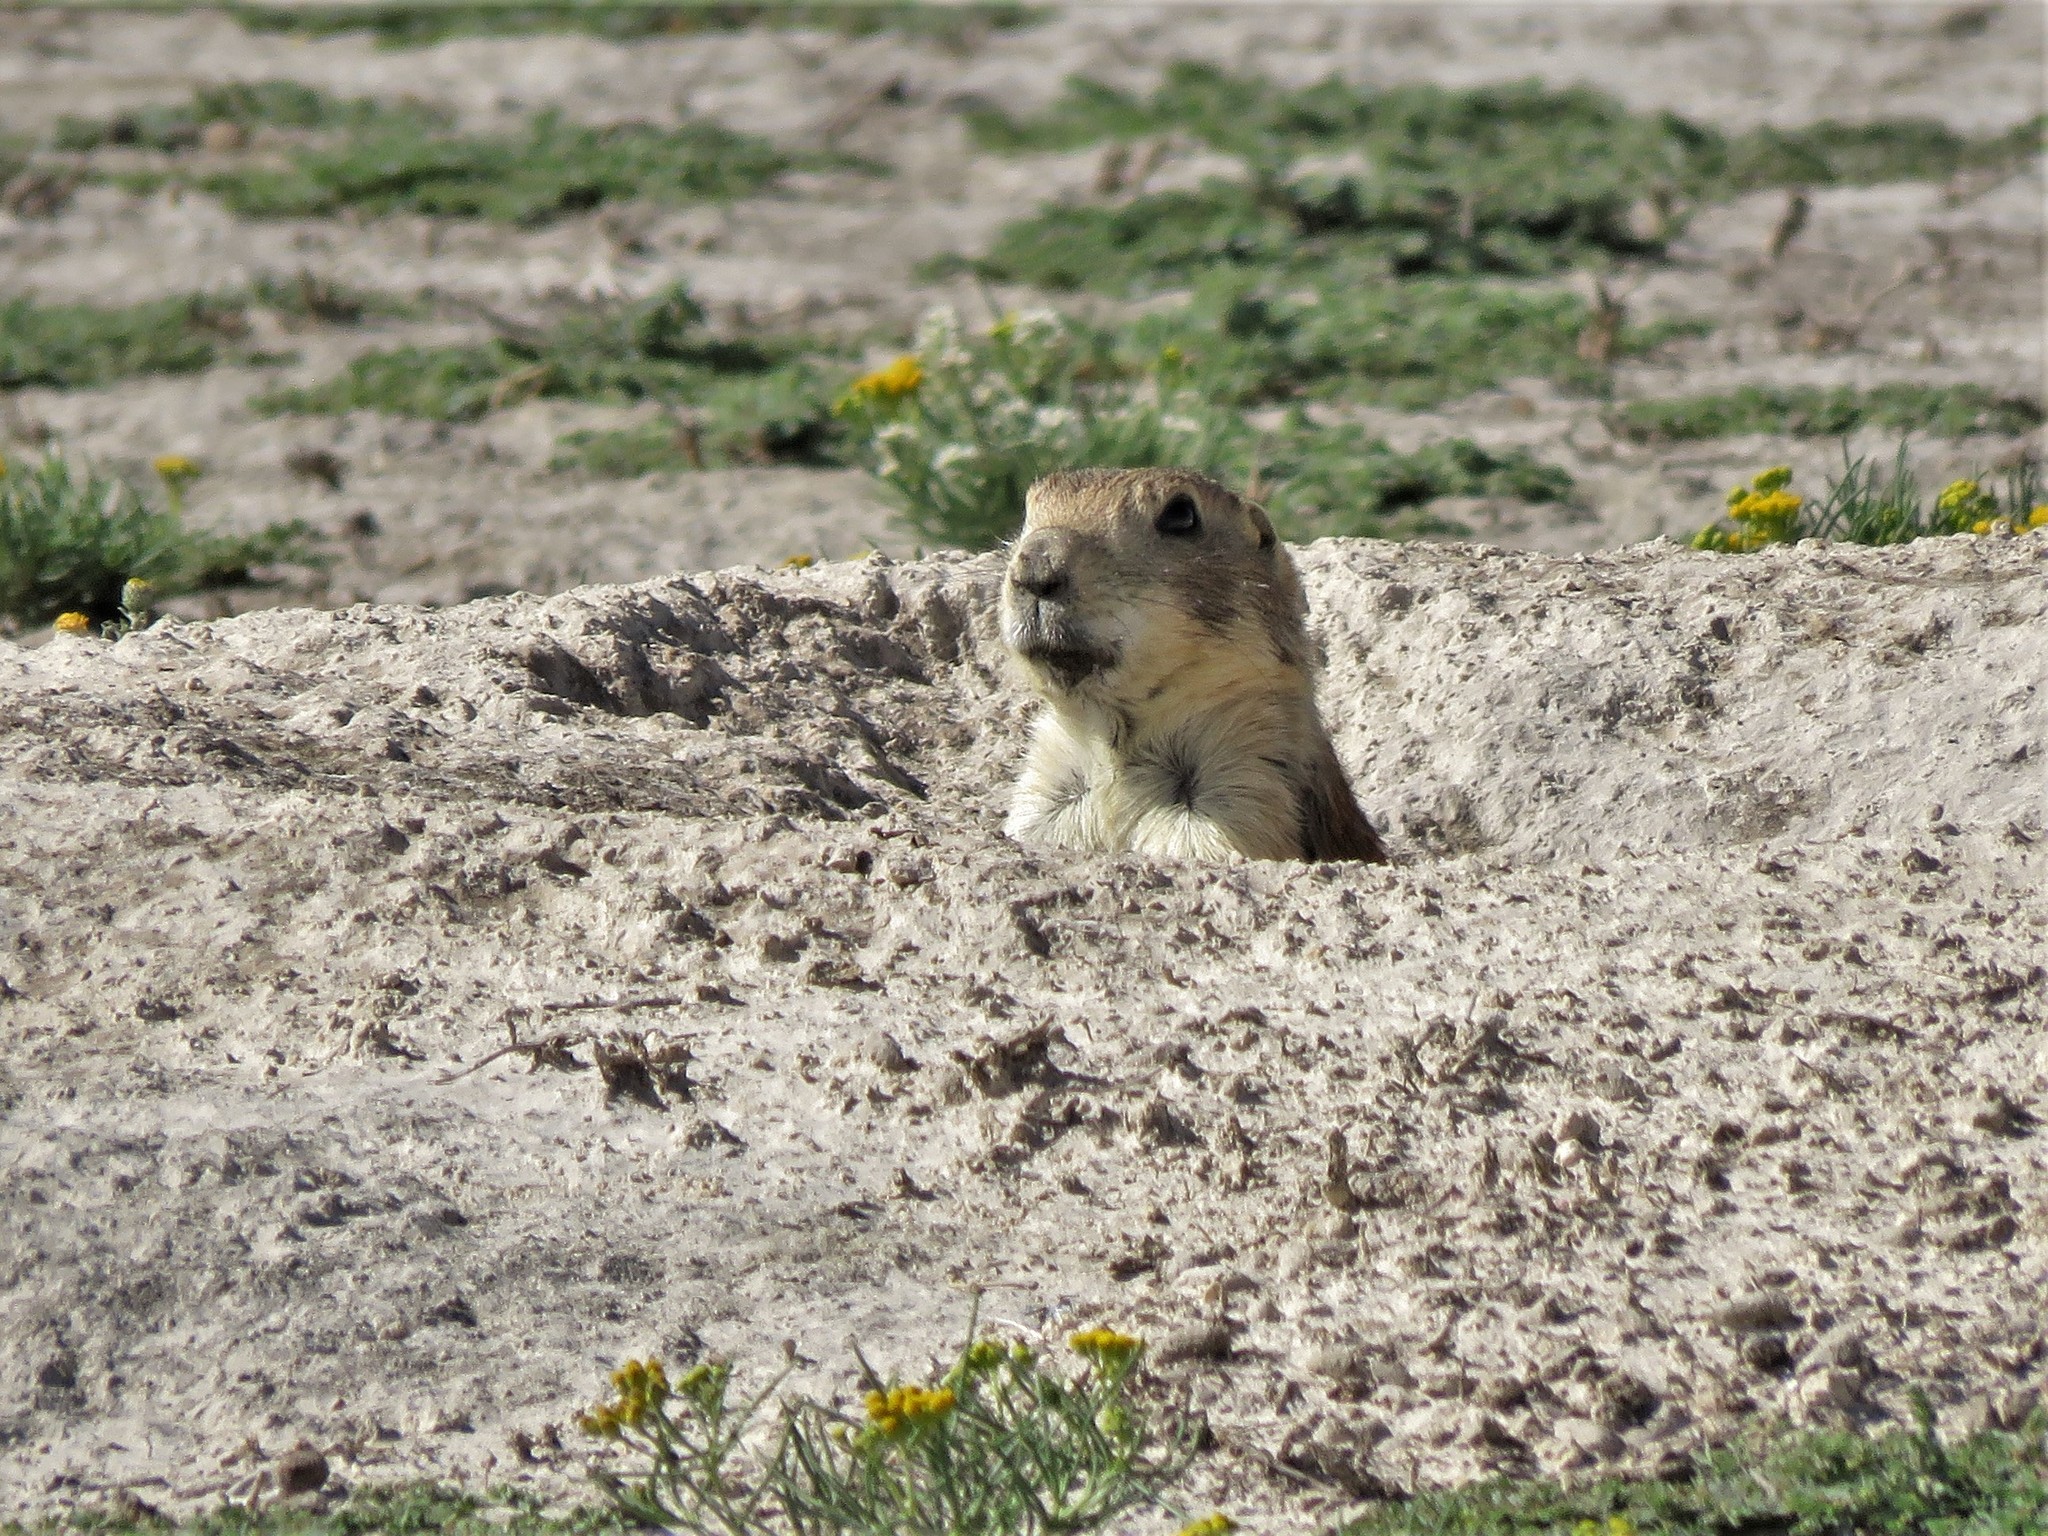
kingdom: Animalia
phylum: Chordata
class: Mammalia
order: Rodentia
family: Sciuridae
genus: Cynomys
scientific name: Cynomys mexicanus
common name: Mexican prairie dog
